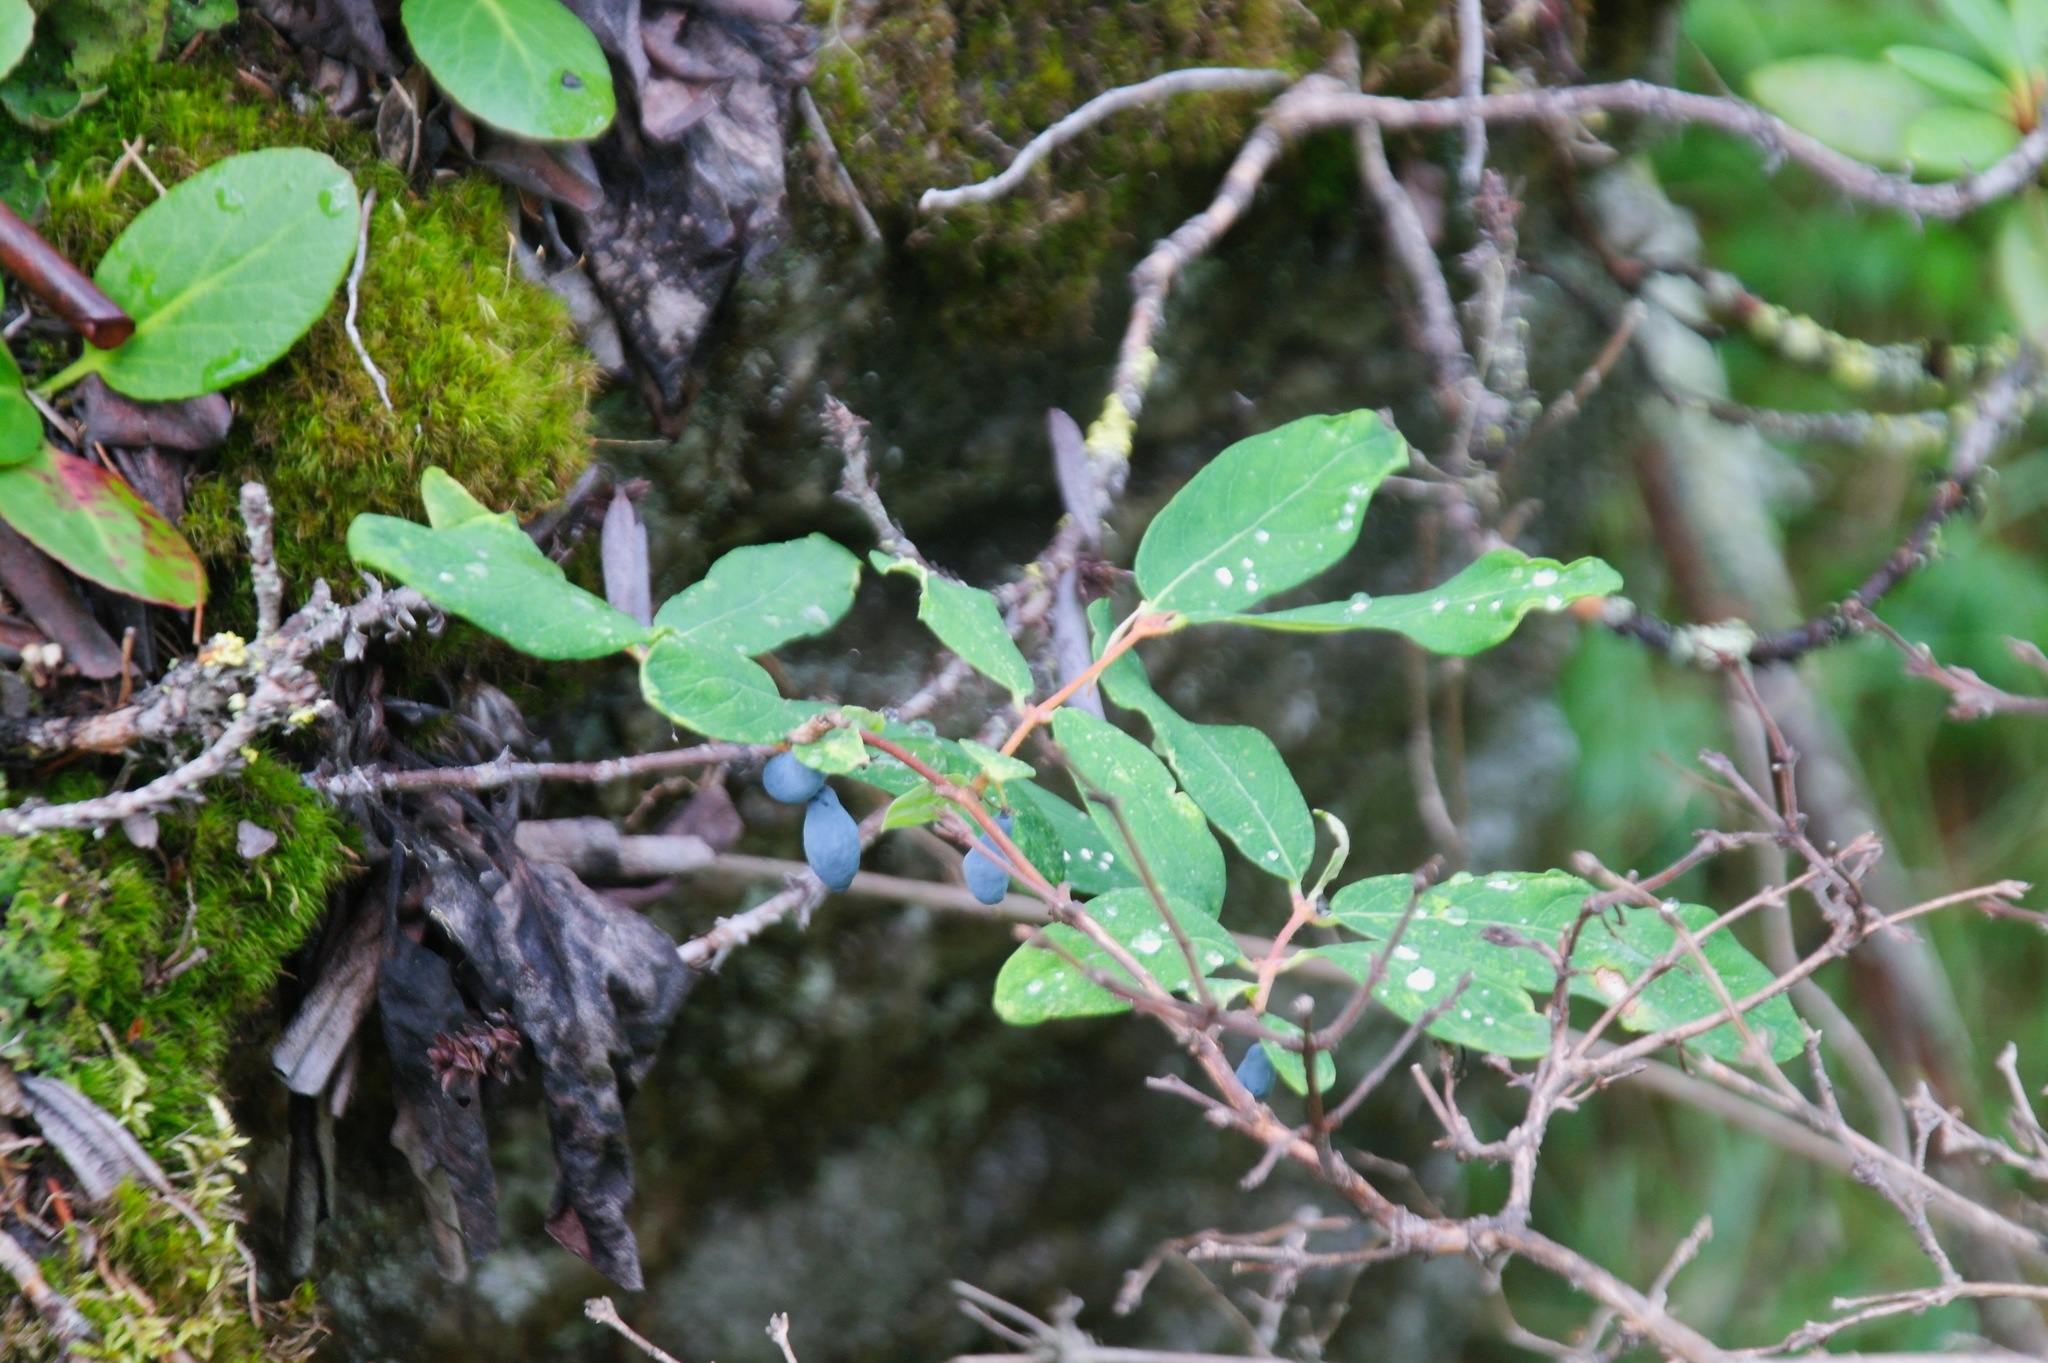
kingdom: Plantae
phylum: Tracheophyta
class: Magnoliopsida
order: Dipsacales
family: Caprifoliaceae
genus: Lonicera
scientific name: Lonicera caerulea
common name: Blue honeysuckle
